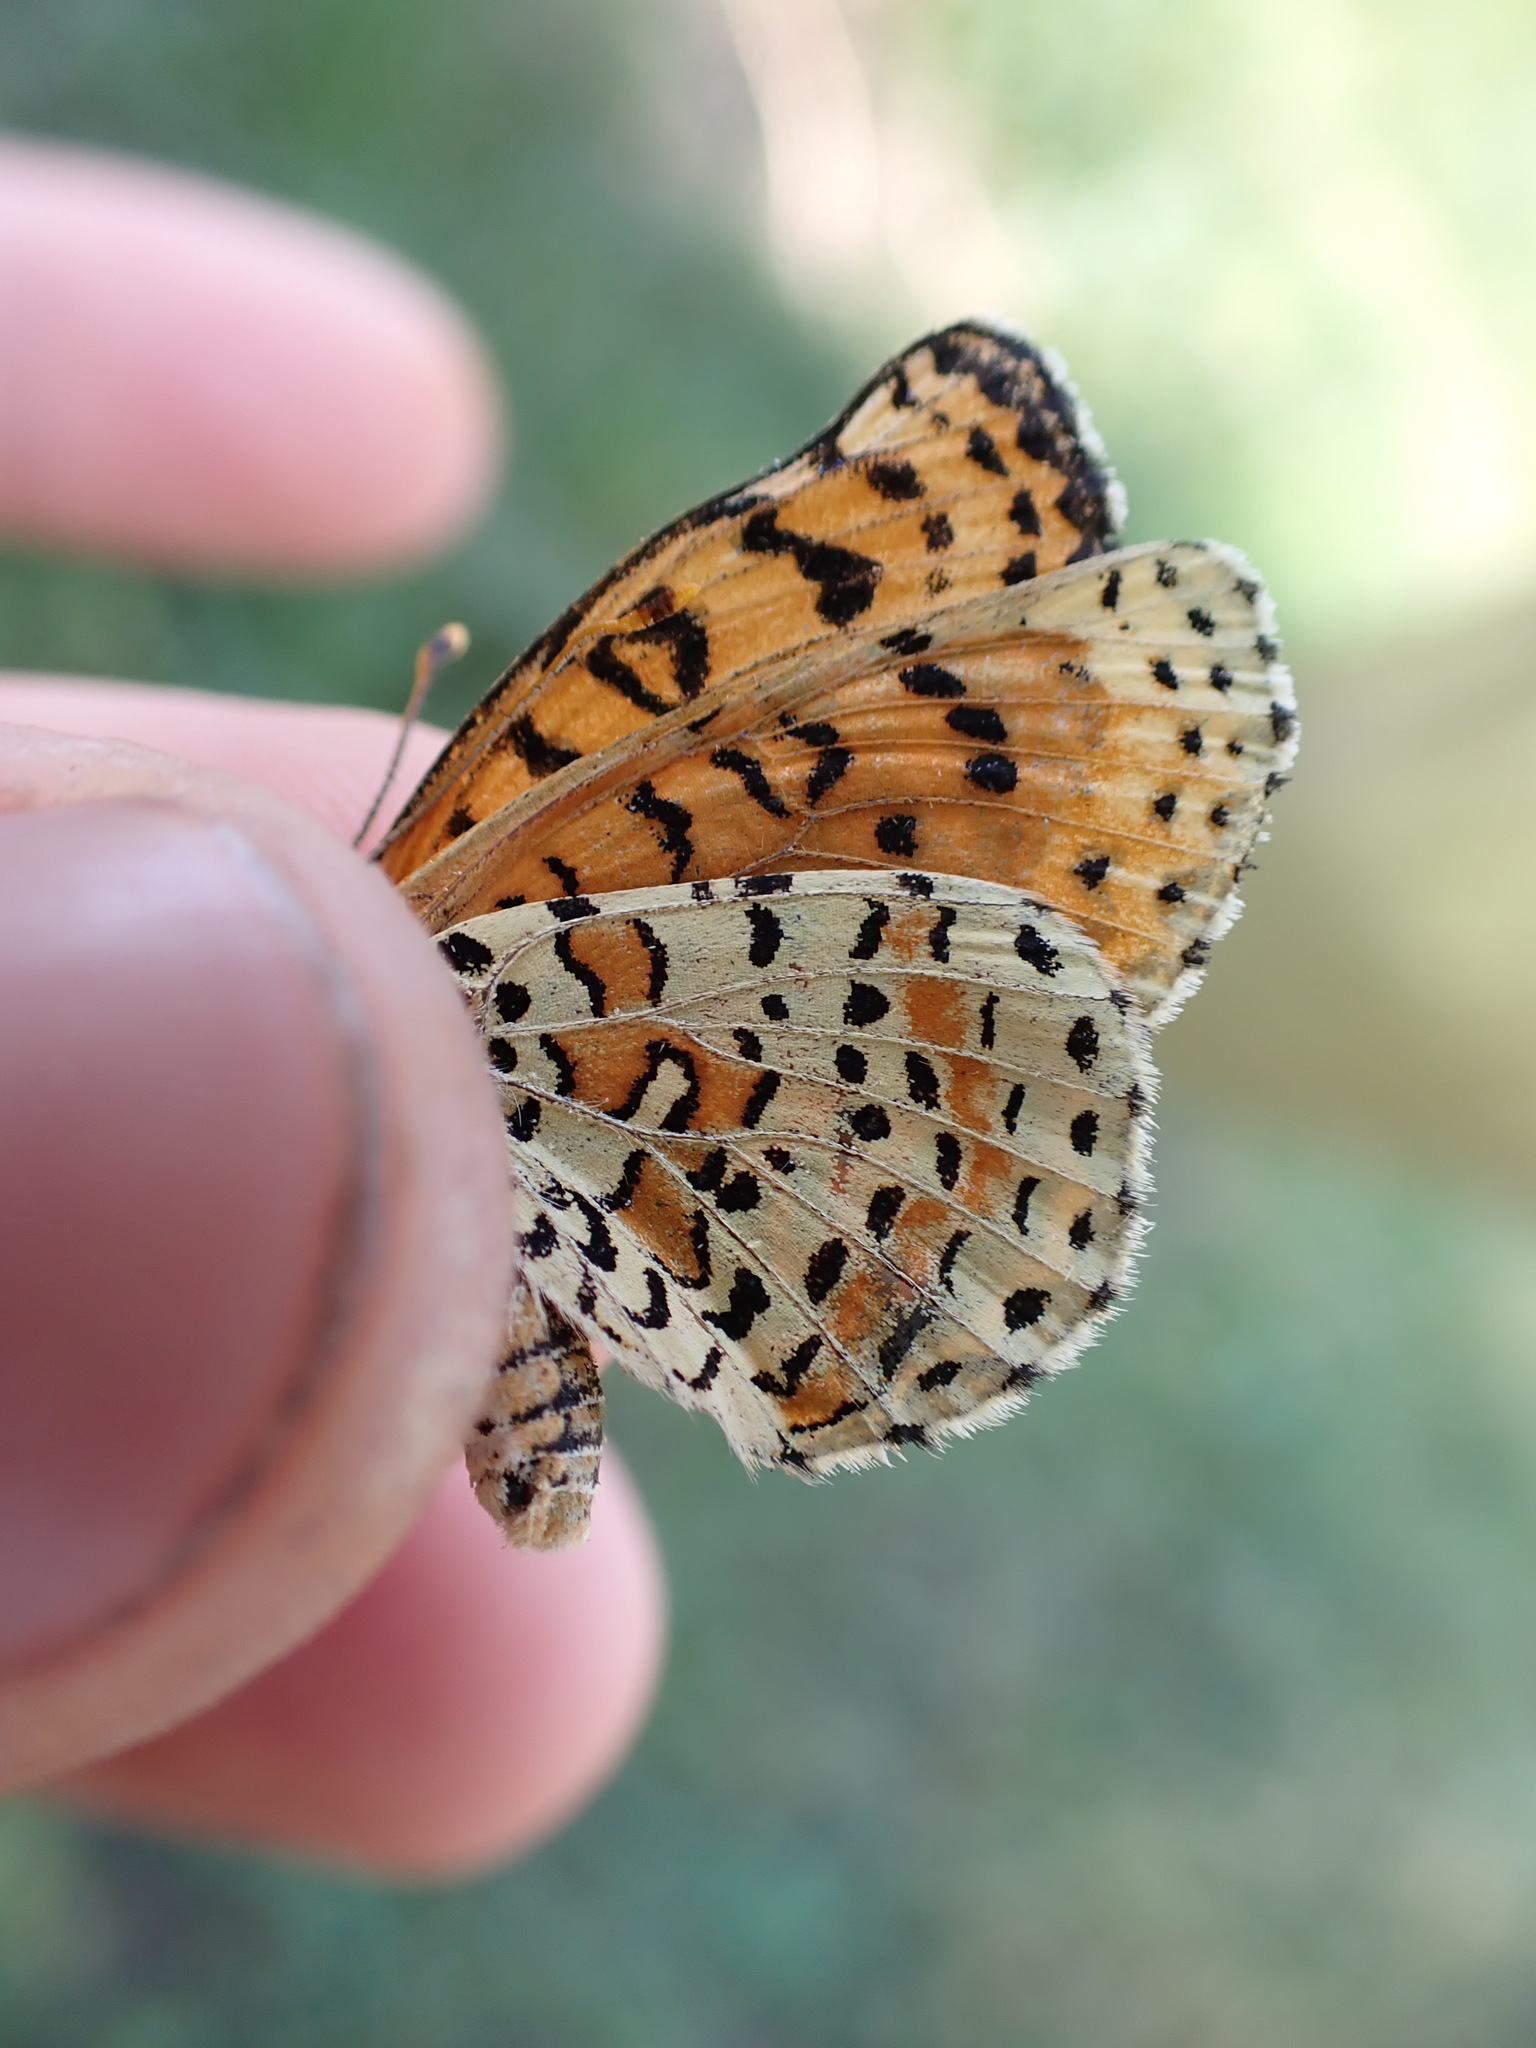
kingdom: Animalia
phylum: Arthropoda
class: Insecta
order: Lepidoptera
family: Nymphalidae
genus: Melitaea
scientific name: Melitaea didyma
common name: Spotted fritillary
